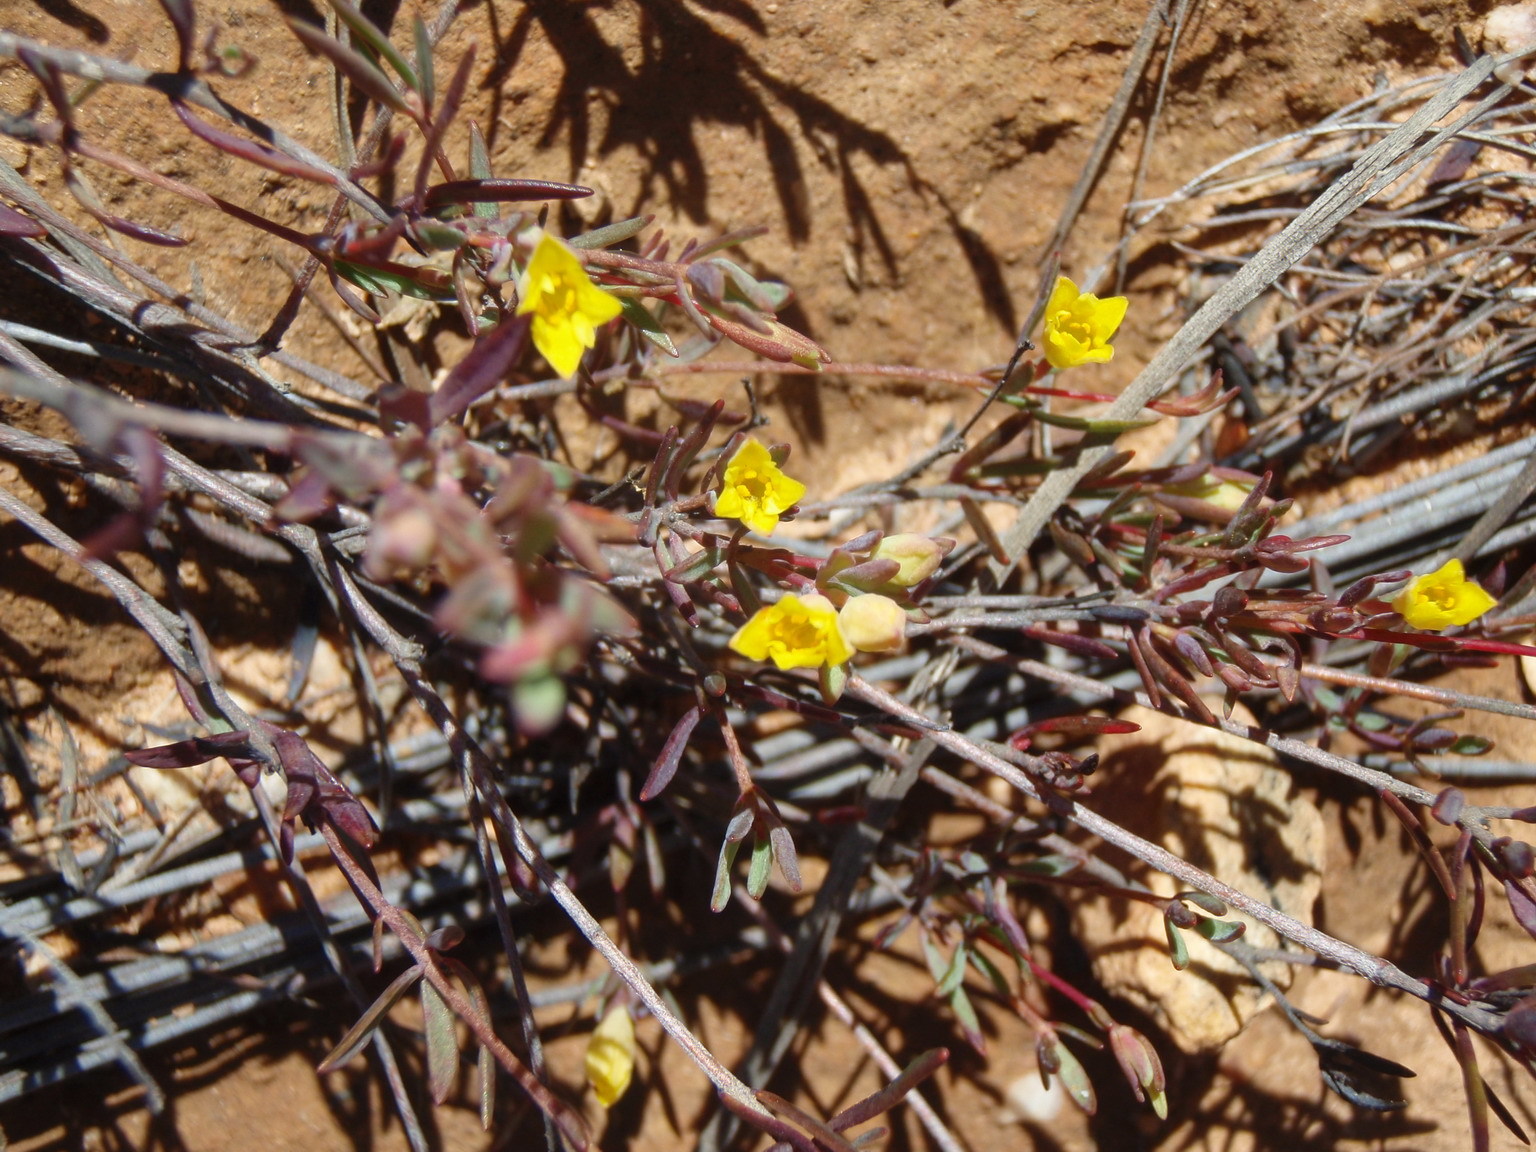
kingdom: Plantae
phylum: Tracheophyta
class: Magnoliopsida
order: Malvales
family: Thymelaeaceae
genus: Gnidia
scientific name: Gnidia juniperifolia
